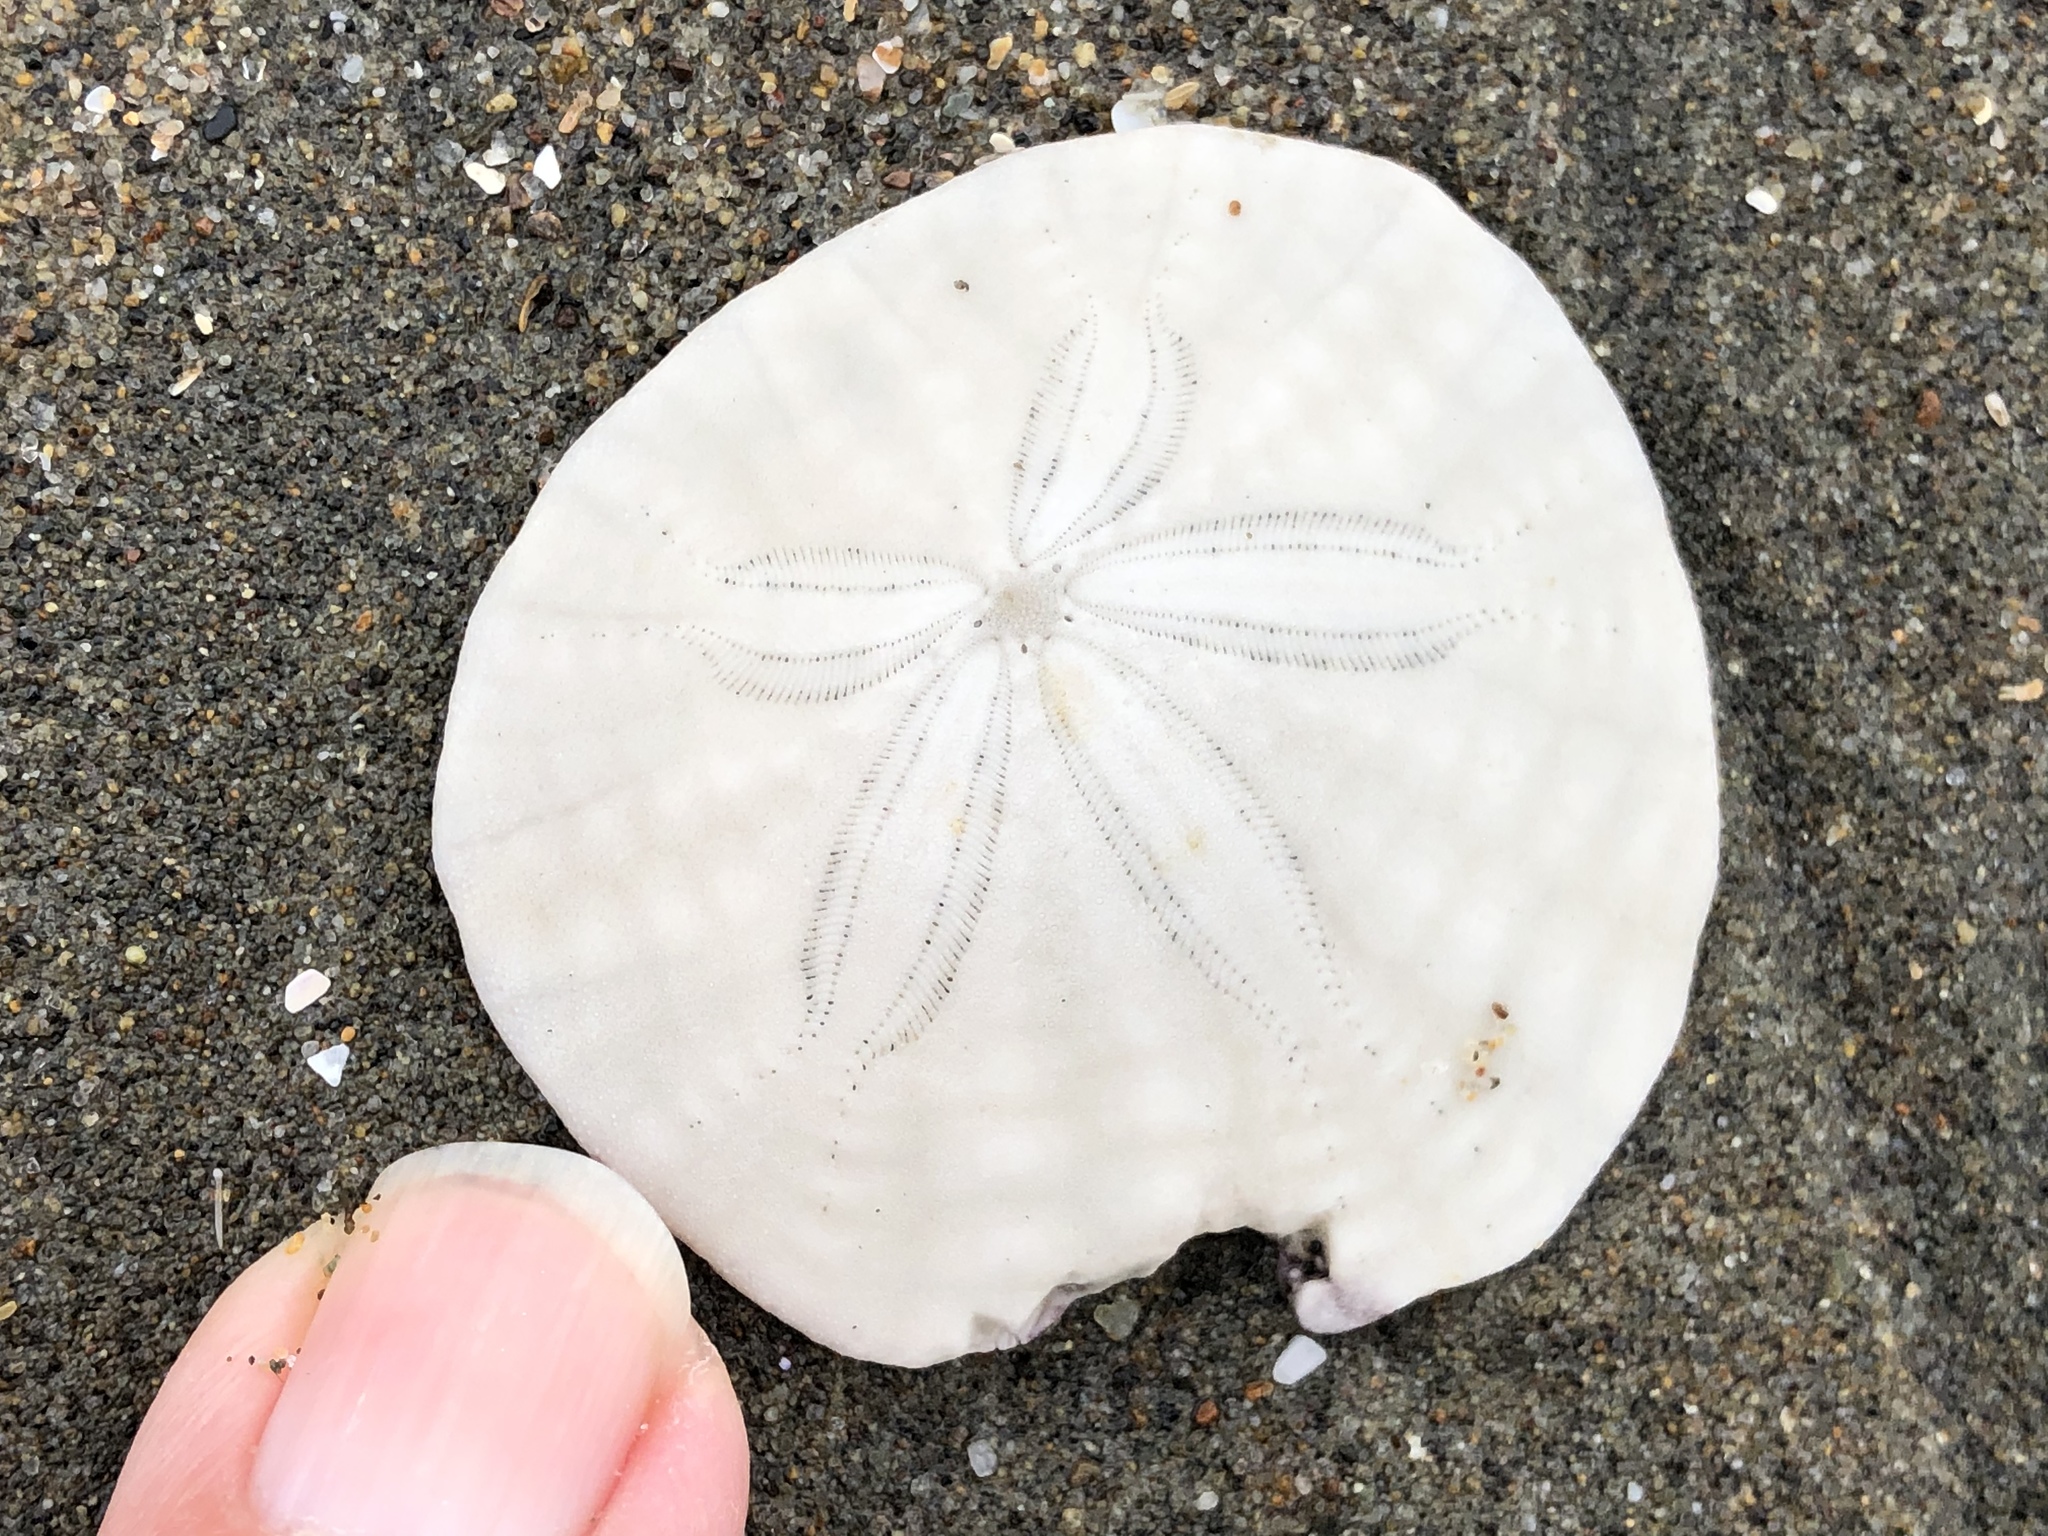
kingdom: Animalia
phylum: Echinodermata
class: Echinoidea
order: Echinolampadacea
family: Dendrasteridae
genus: Dendraster
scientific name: Dendraster excentricus
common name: Eccentric sand dollar sea urchin
